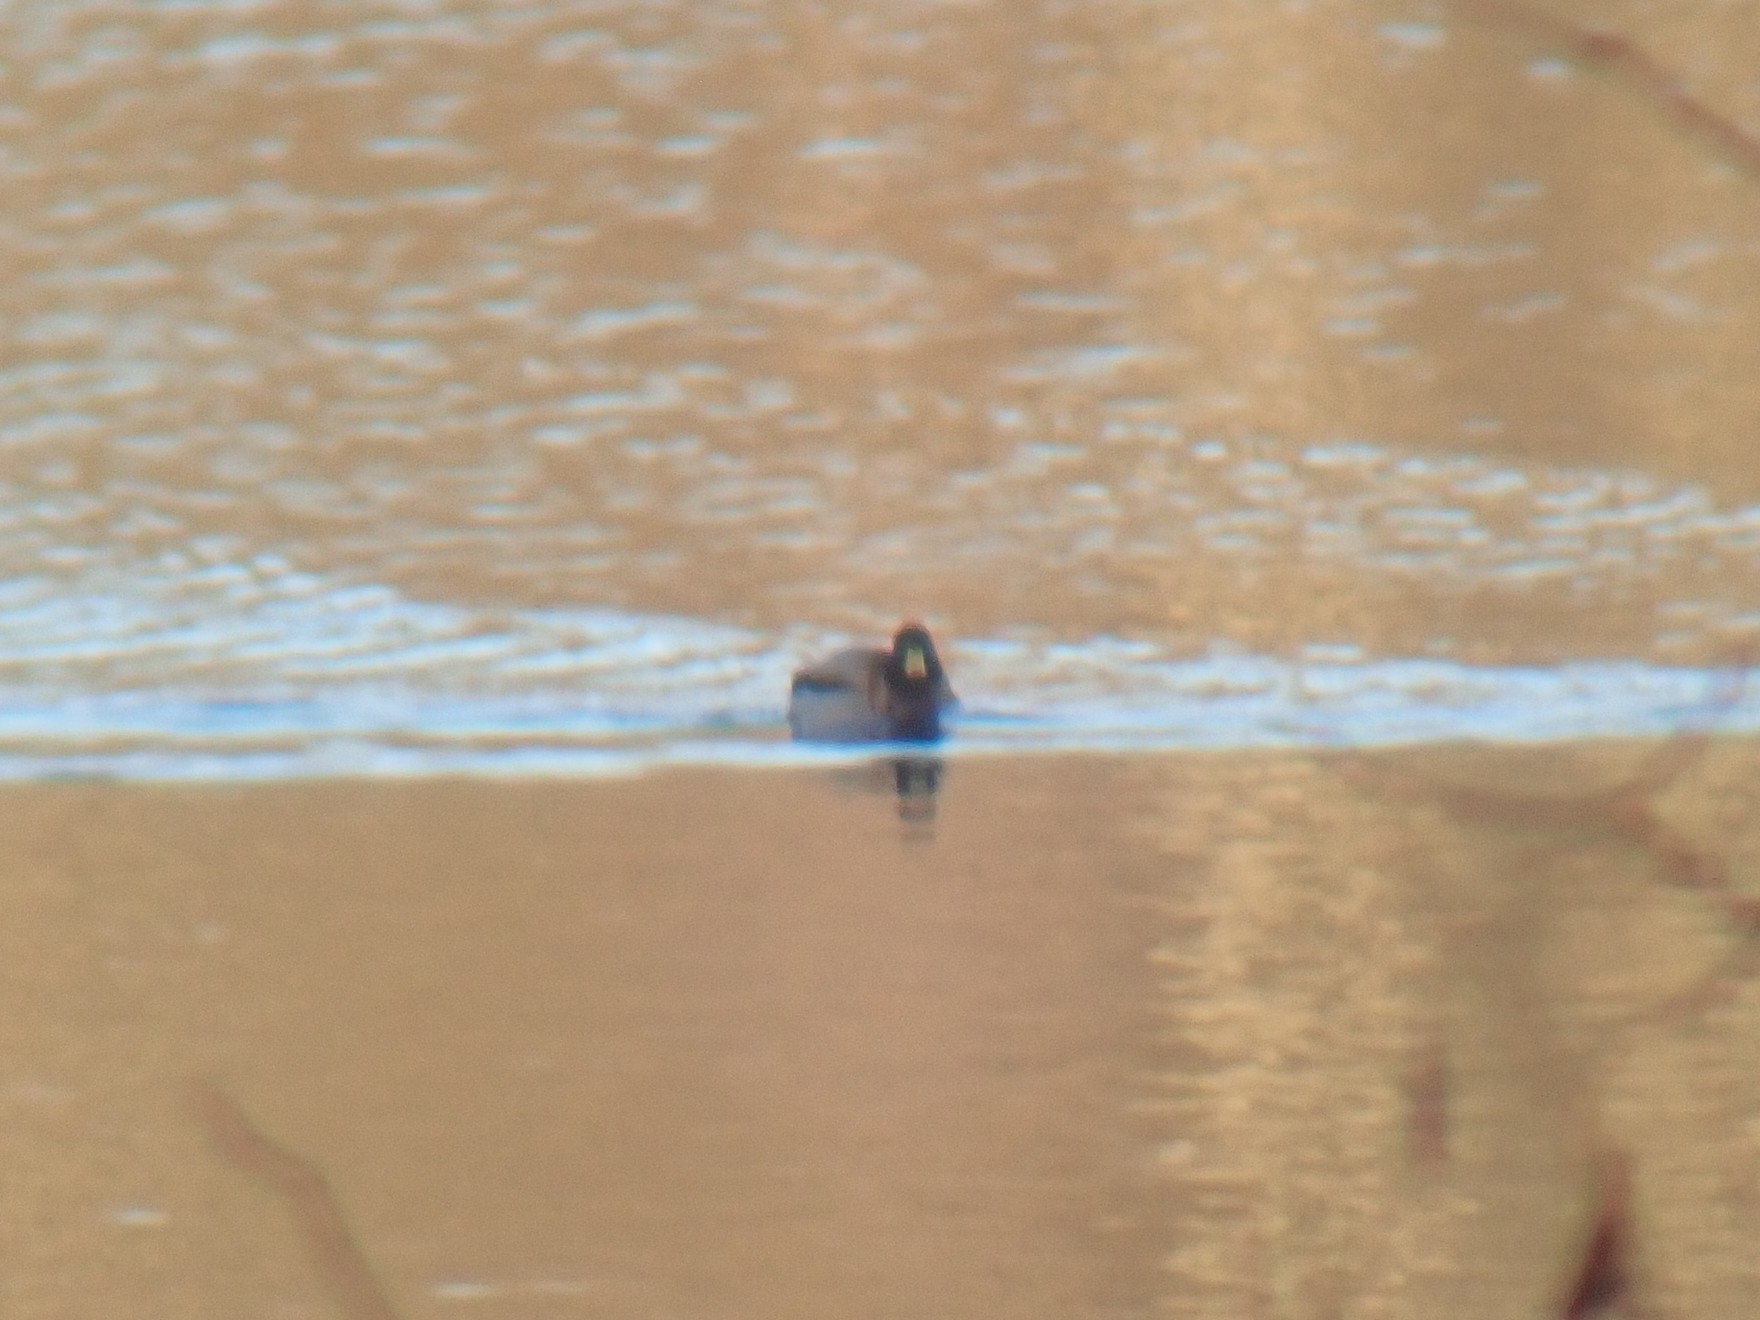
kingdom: Animalia
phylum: Chordata
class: Aves
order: Anseriformes
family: Anatidae
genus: Anas
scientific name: Anas platyrhynchos
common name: Mallard
